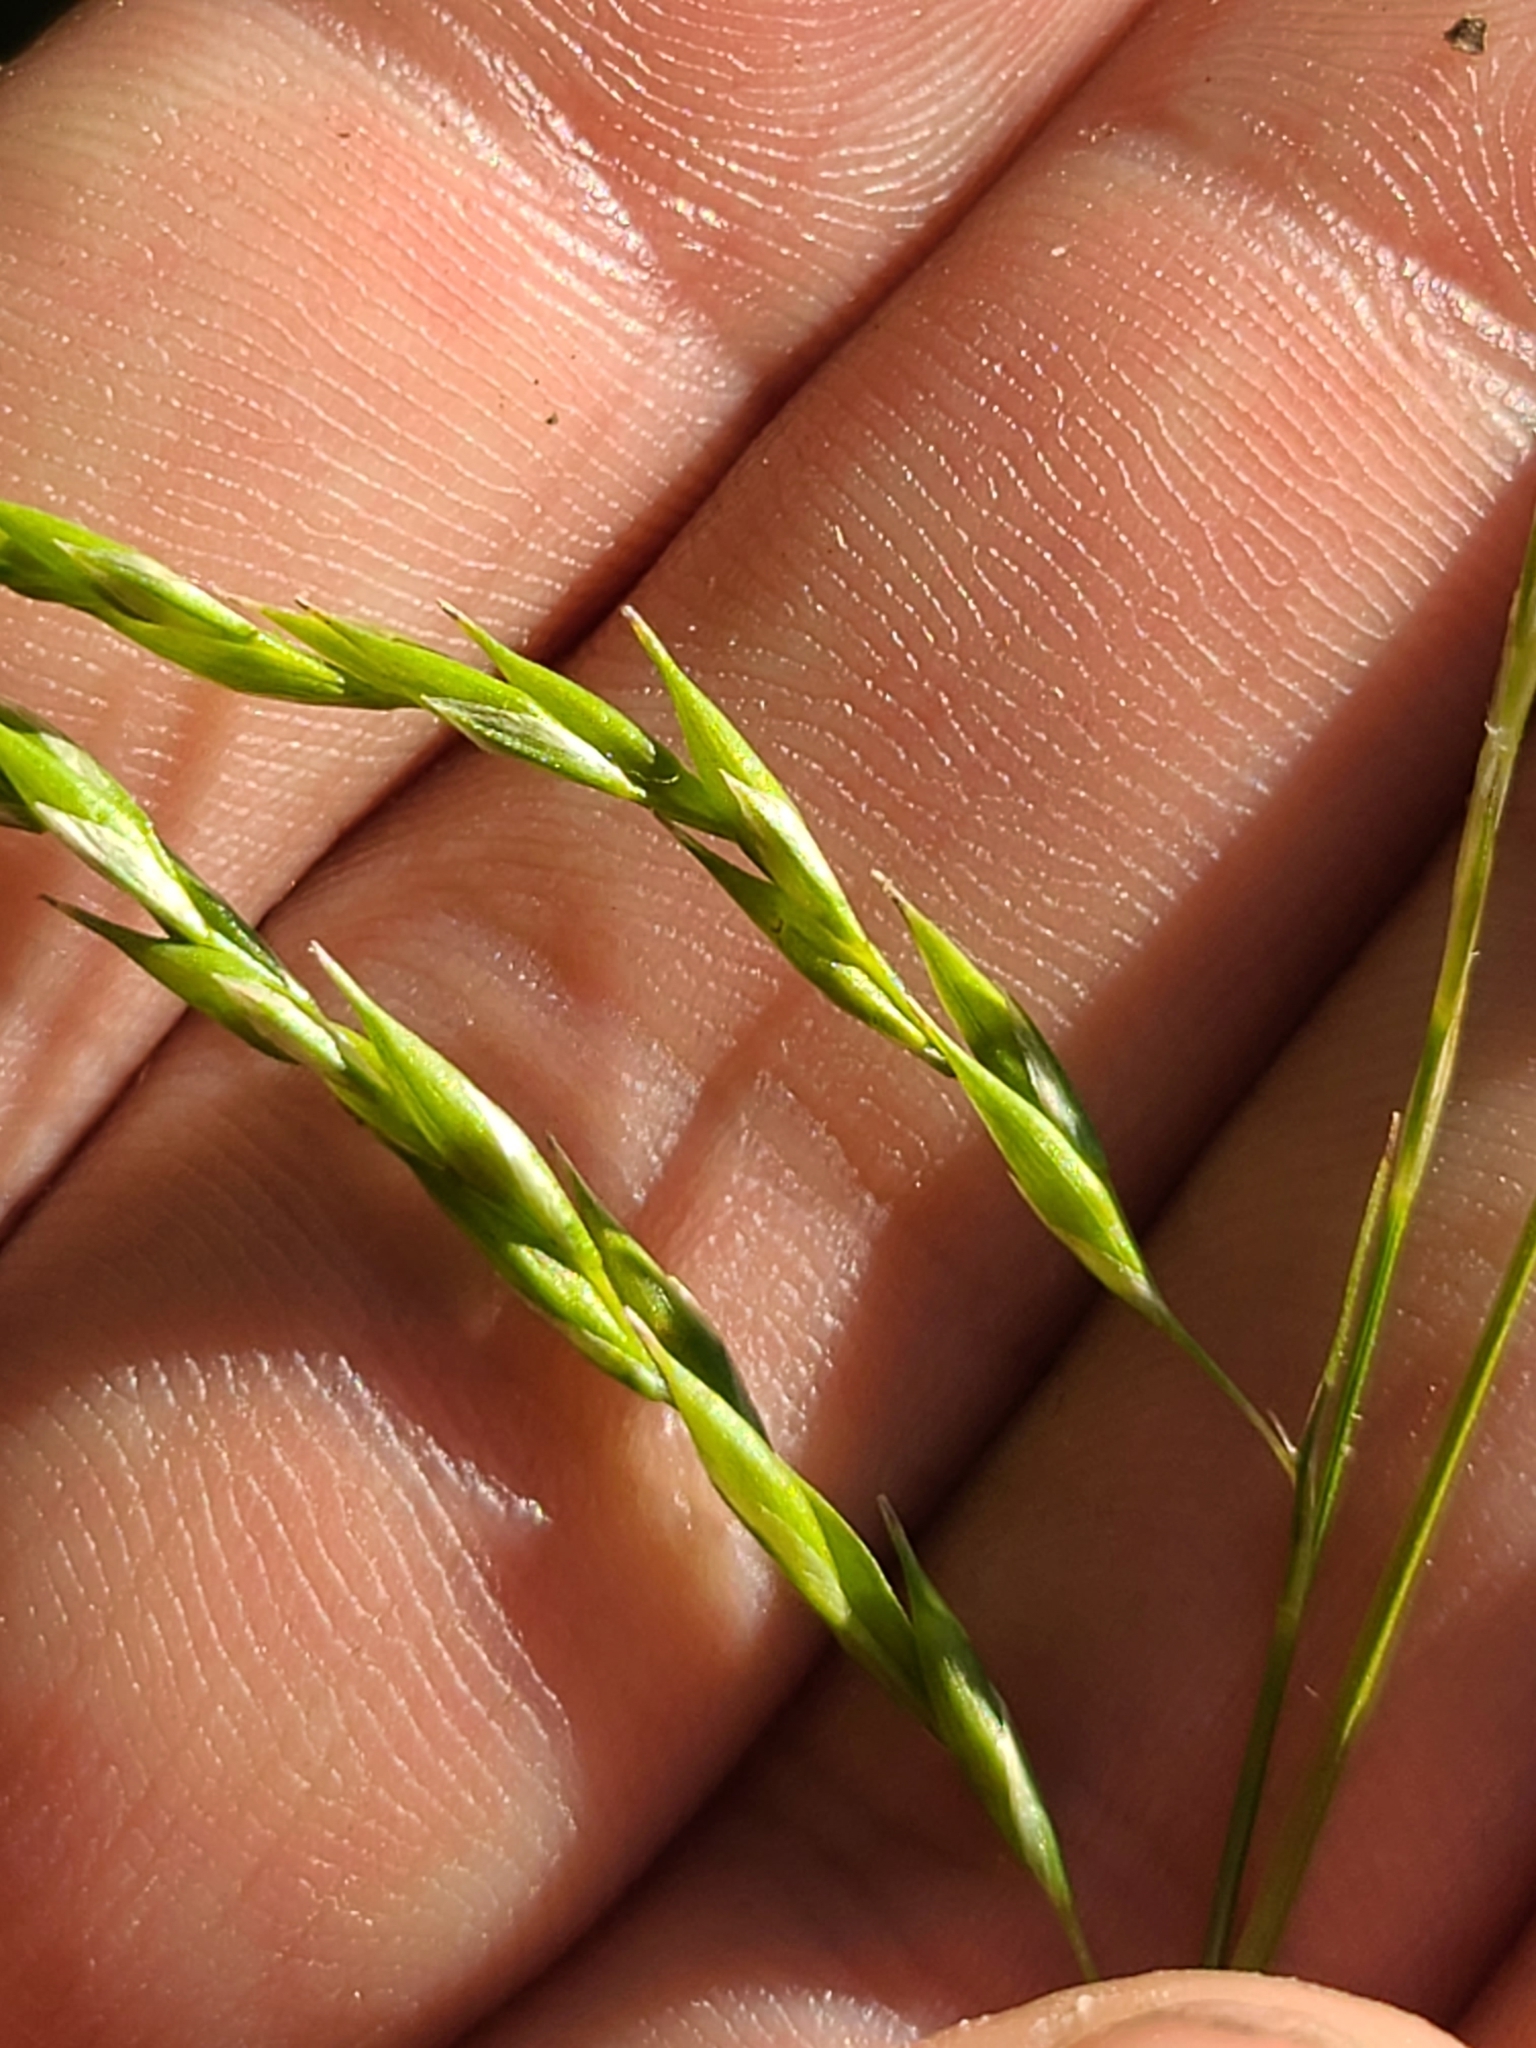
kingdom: Plantae
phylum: Tracheophyta
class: Liliopsida
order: Poales
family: Cyperaceae
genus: Carex
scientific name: Carex debilis
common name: White-edge sedge
